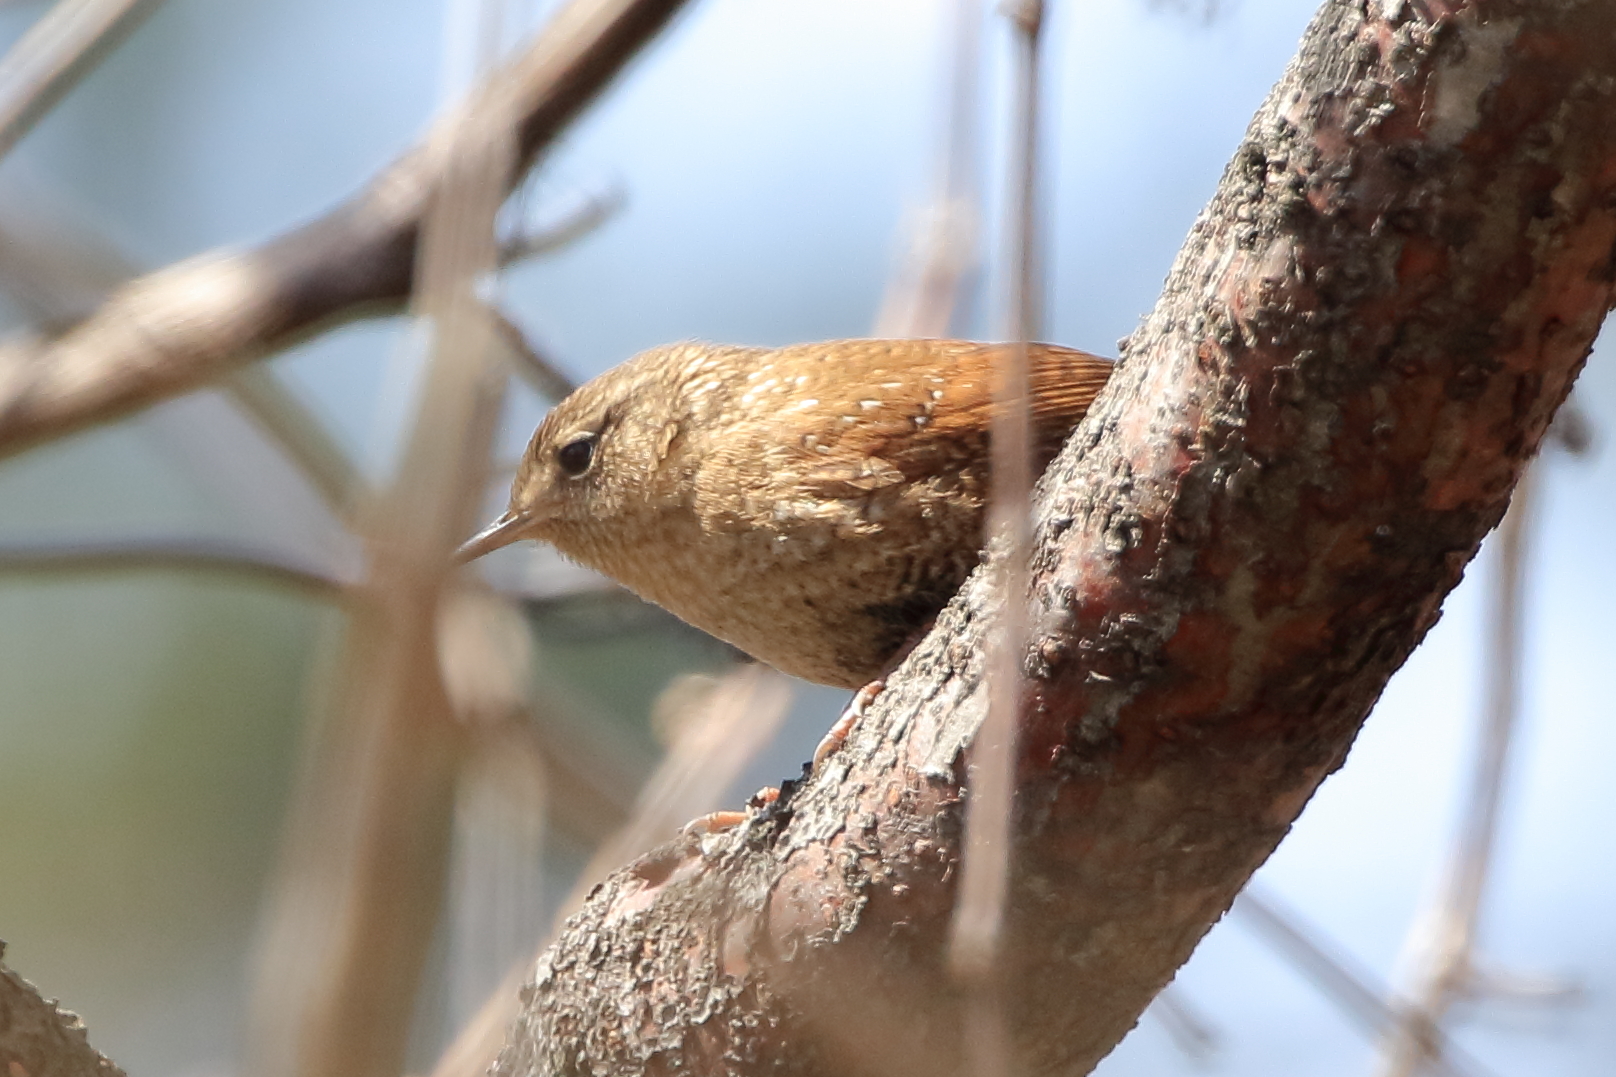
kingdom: Animalia
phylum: Chordata
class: Aves
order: Passeriformes
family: Troglodytidae
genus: Troglodytes
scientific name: Troglodytes hiemalis
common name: Winter wren
